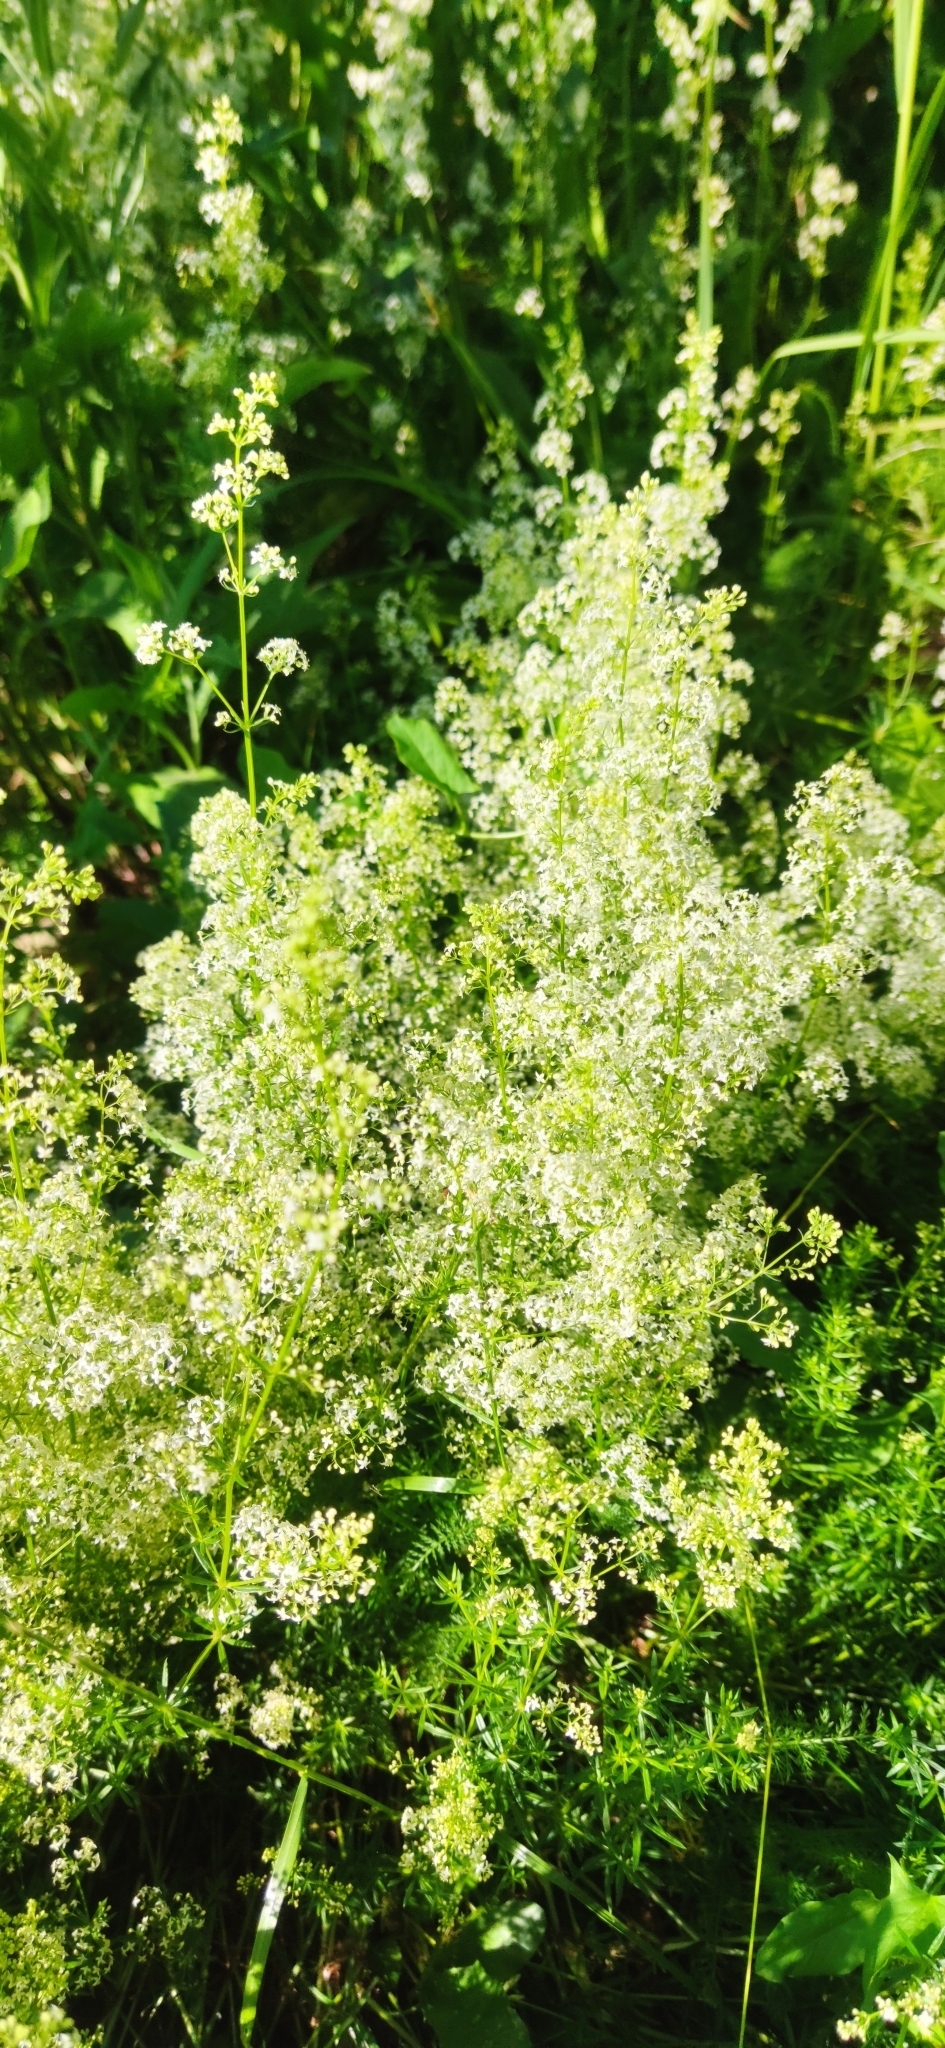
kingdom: Plantae
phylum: Tracheophyta
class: Magnoliopsida
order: Gentianales
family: Rubiaceae
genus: Galium
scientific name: Galium mollugo
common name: Hedge bedstraw
